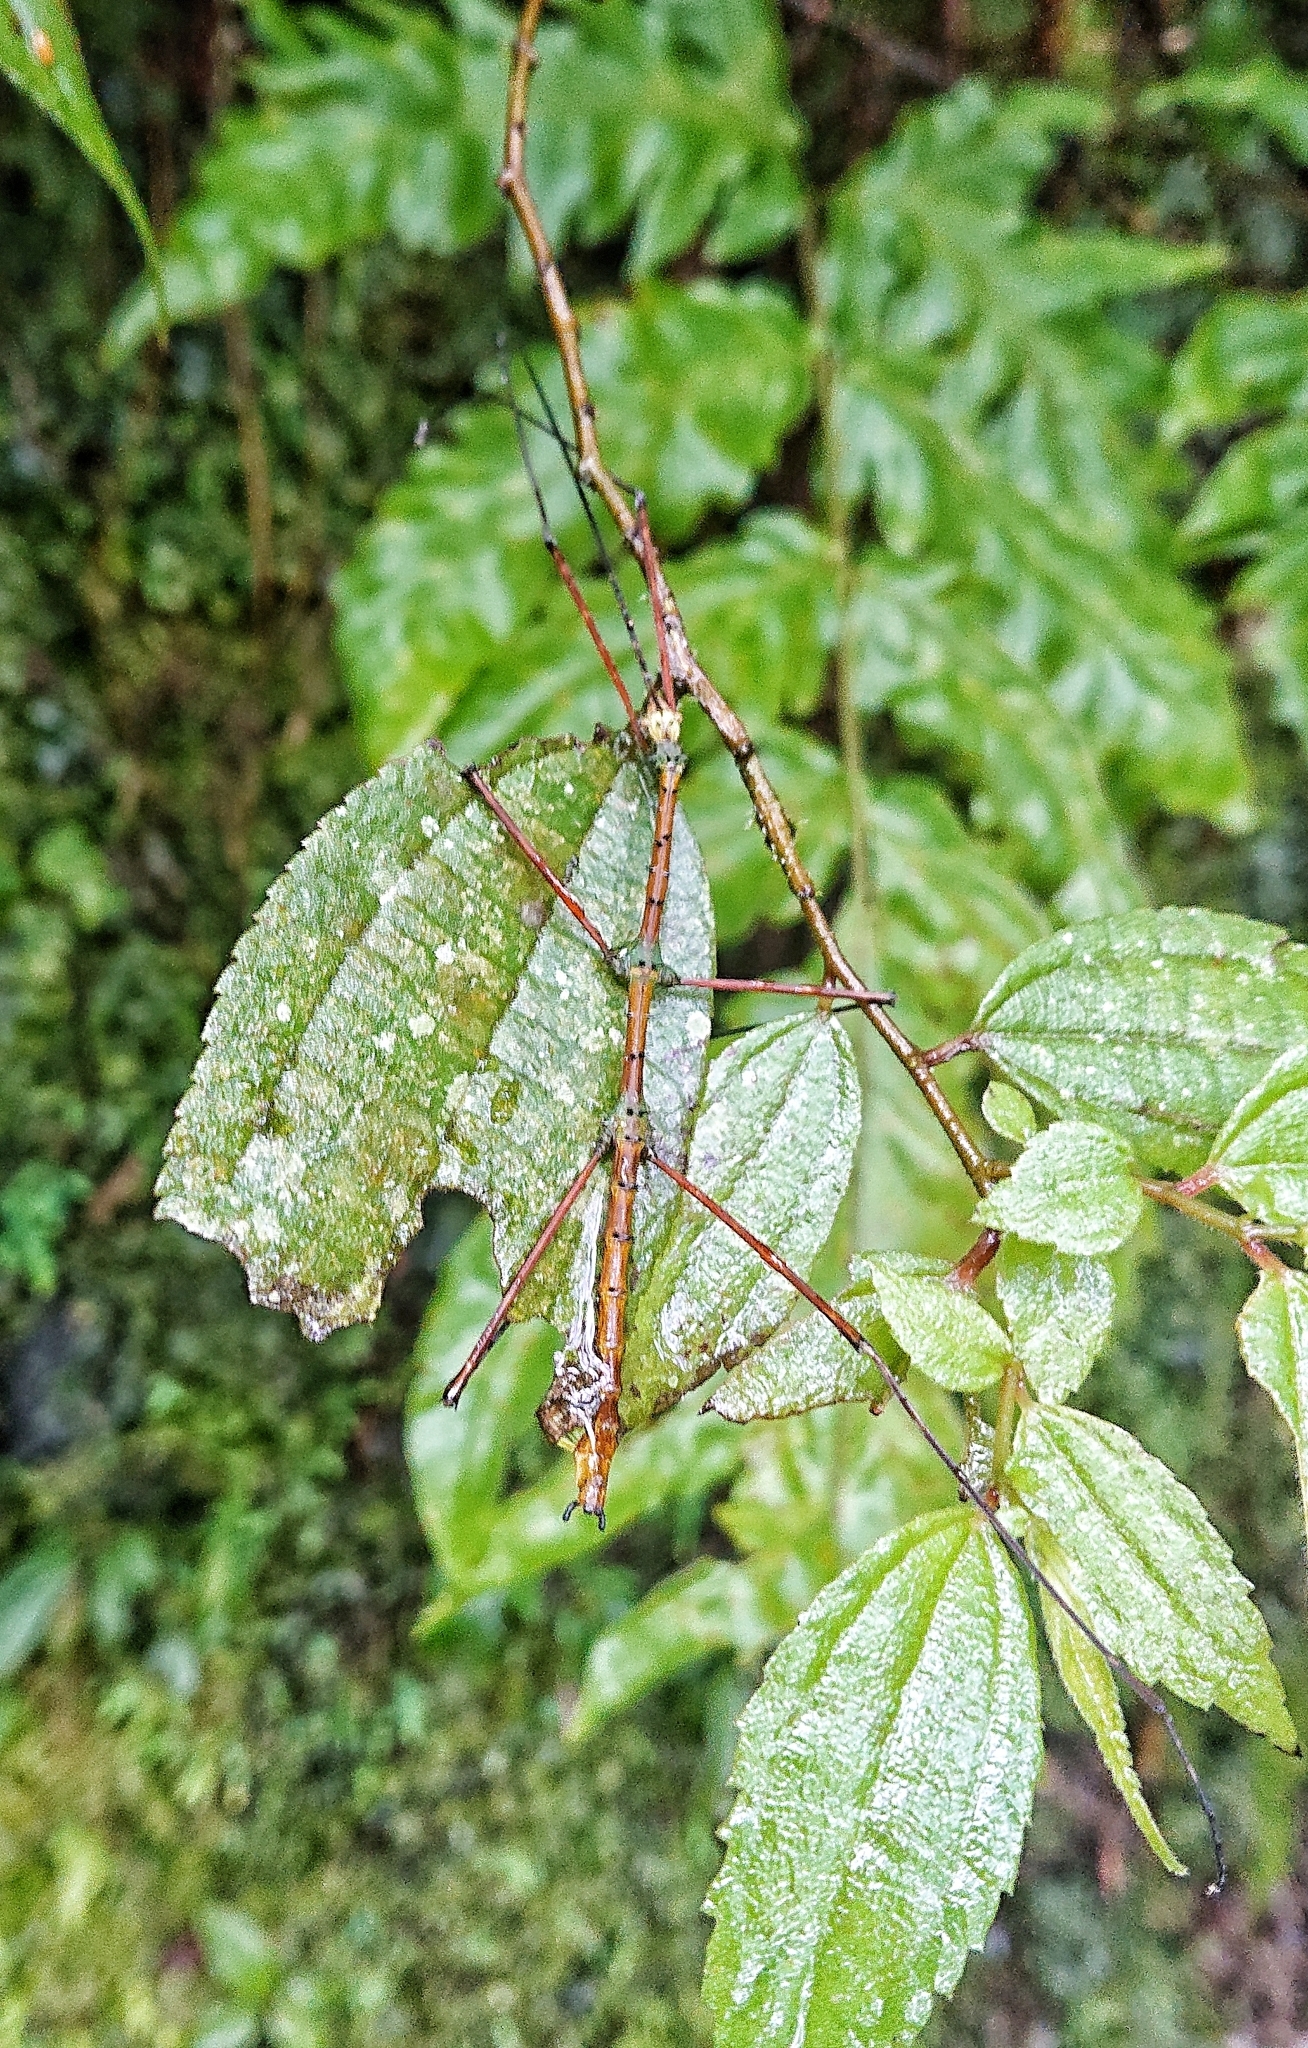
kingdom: Animalia
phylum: Arthropoda
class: Insecta
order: Phasmida
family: Diapheromeridae
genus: Spinopeplus
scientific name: Spinopeplus spinosissimus
